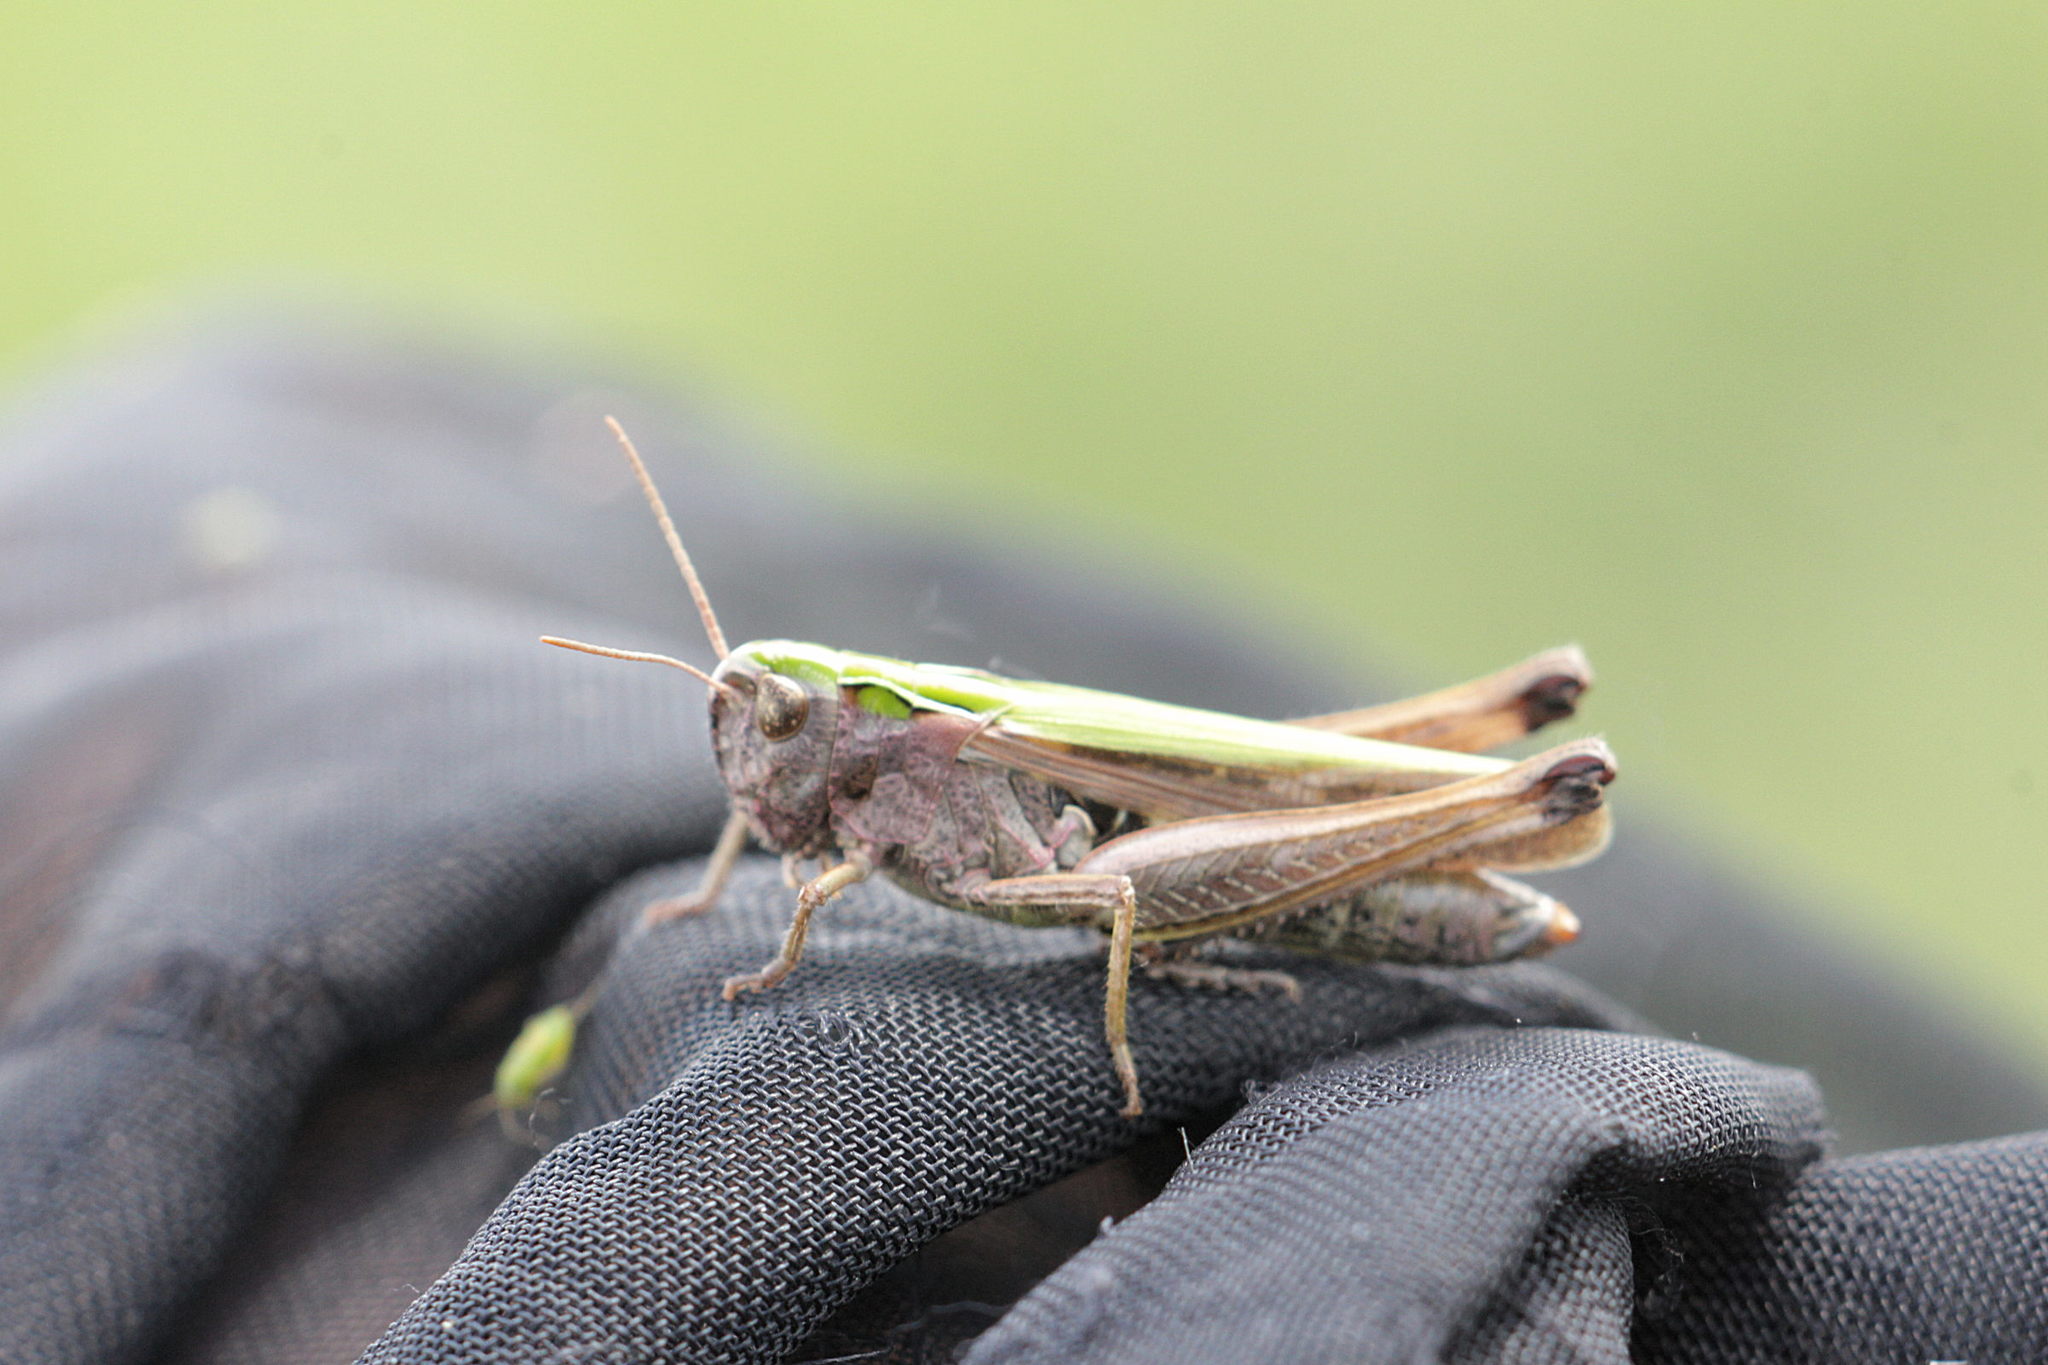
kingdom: Animalia
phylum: Arthropoda
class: Insecta
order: Orthoptera
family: Acrididae
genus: Omocestus
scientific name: Omocestus viridulus
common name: Common green grasshopper
